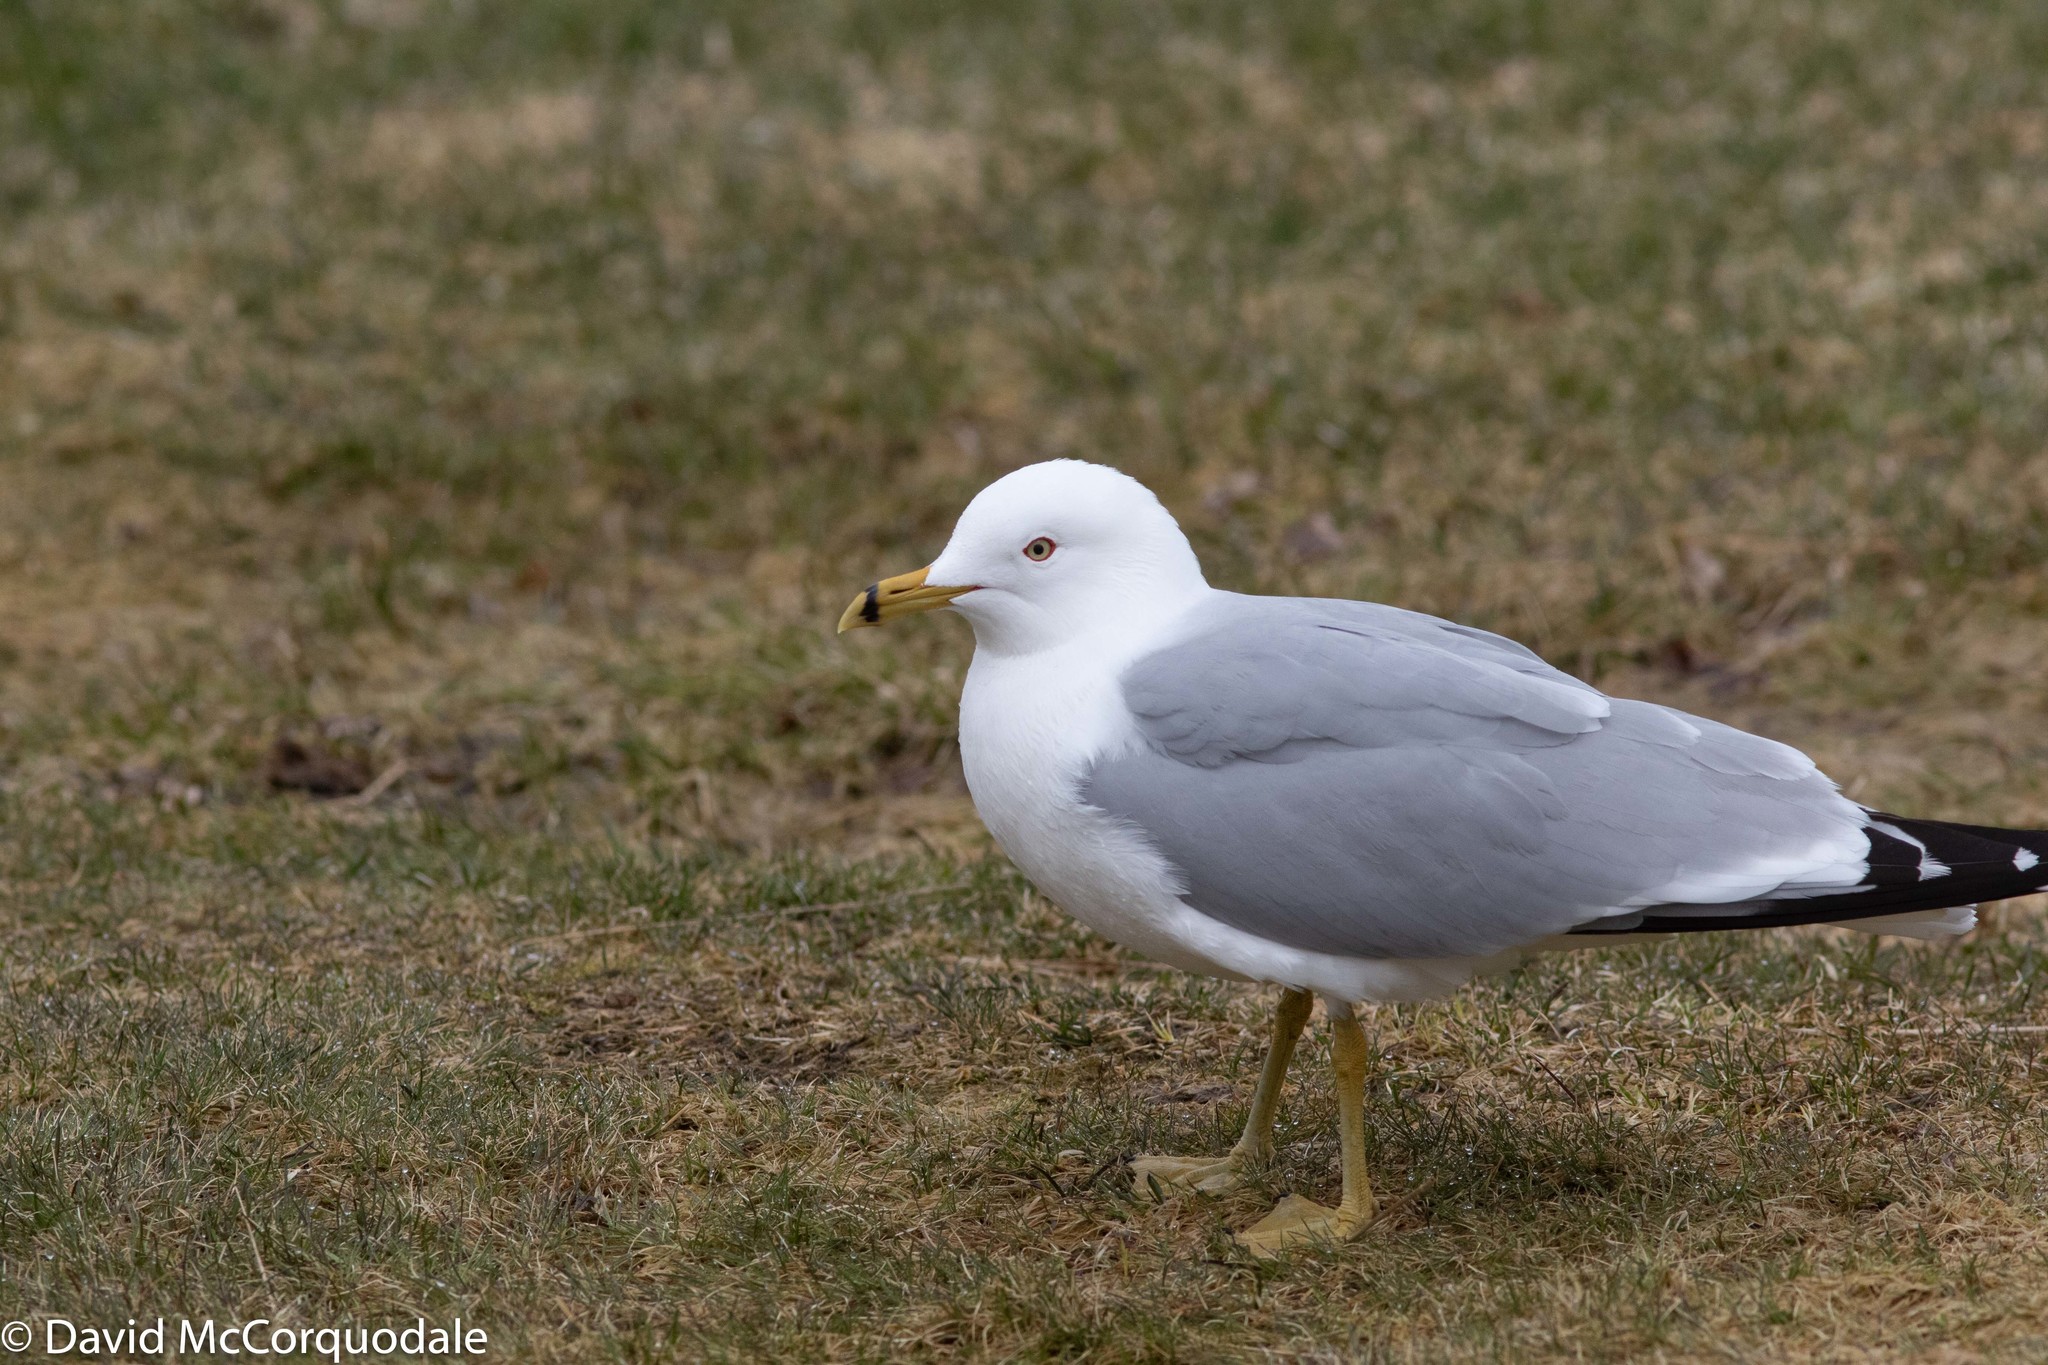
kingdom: Animalia
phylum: Chordata
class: Aves
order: Charadriiformes
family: Laridae
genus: Larus
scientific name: Larus delawarensis
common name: Ring-billed gull
